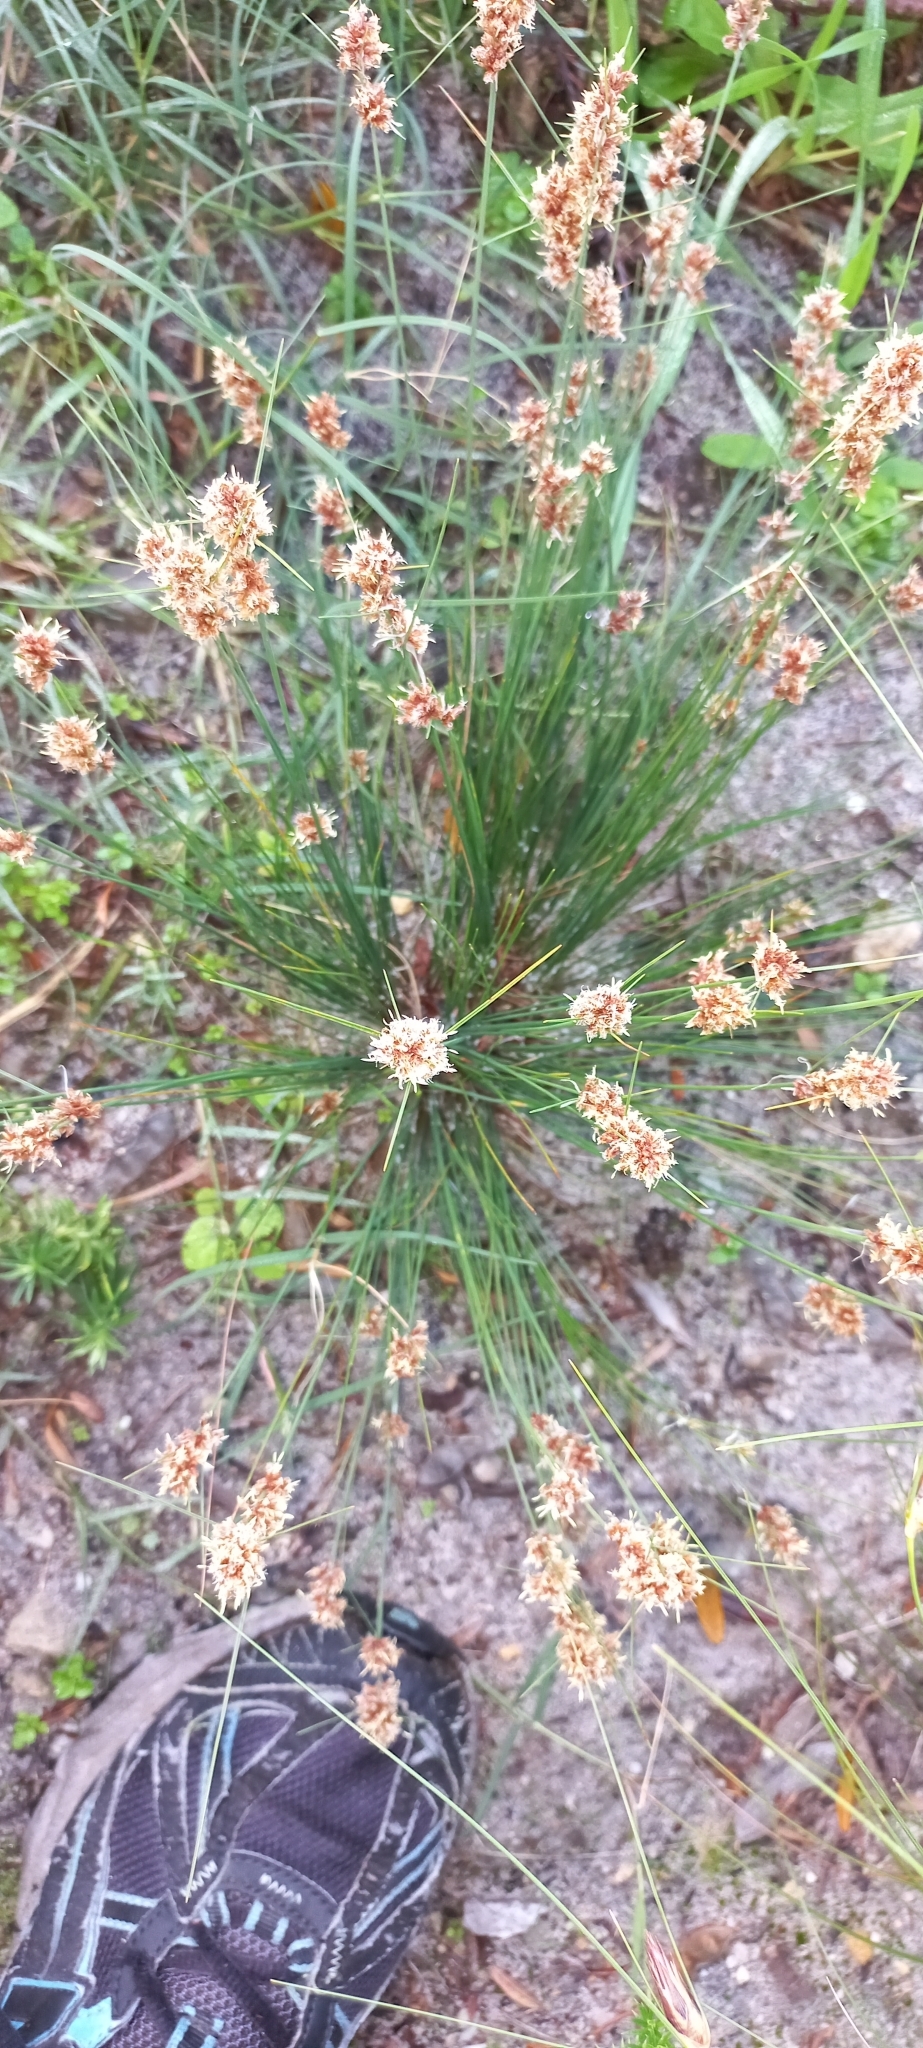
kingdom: Plantae
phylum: Tracheophyta
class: Liliopsida
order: Poales
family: Cyperaceae
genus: Ficinia
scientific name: Ficinia bulbosa
